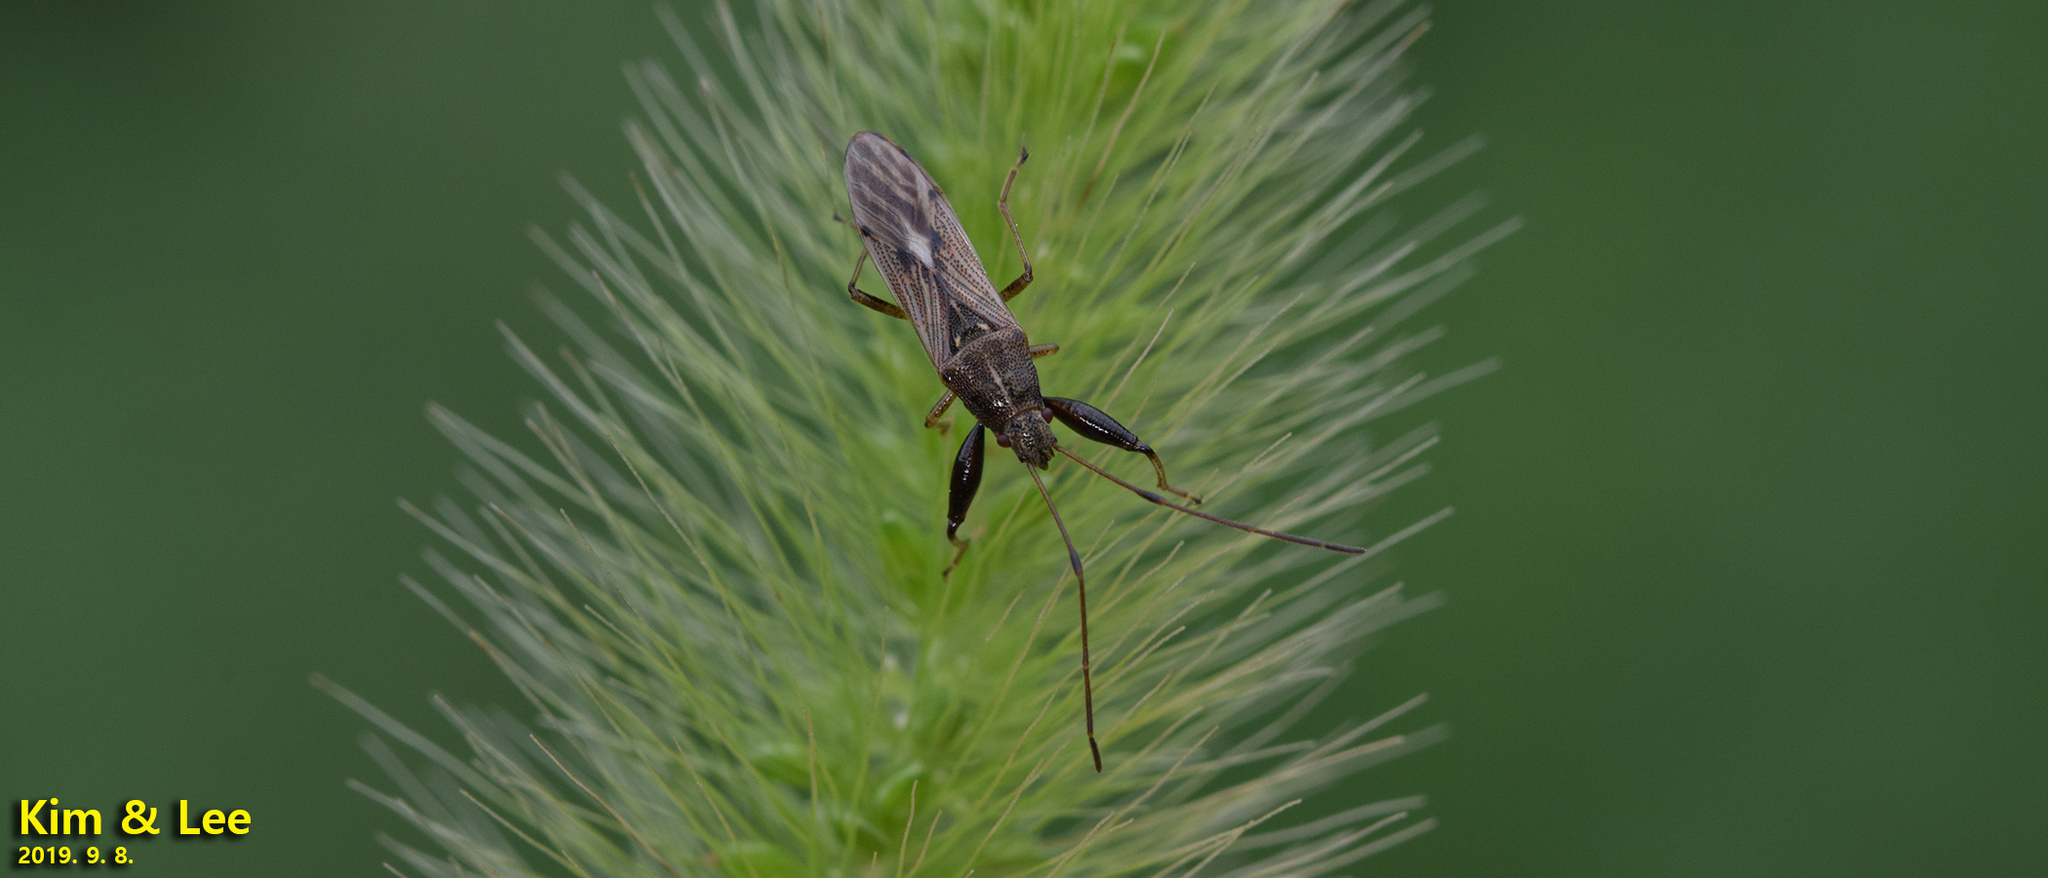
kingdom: Animalia
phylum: Arthropoda
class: Insecta
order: Hemiptera
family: Pachygronthidae
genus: Pachygrontha
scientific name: Pachygrontha antennata
